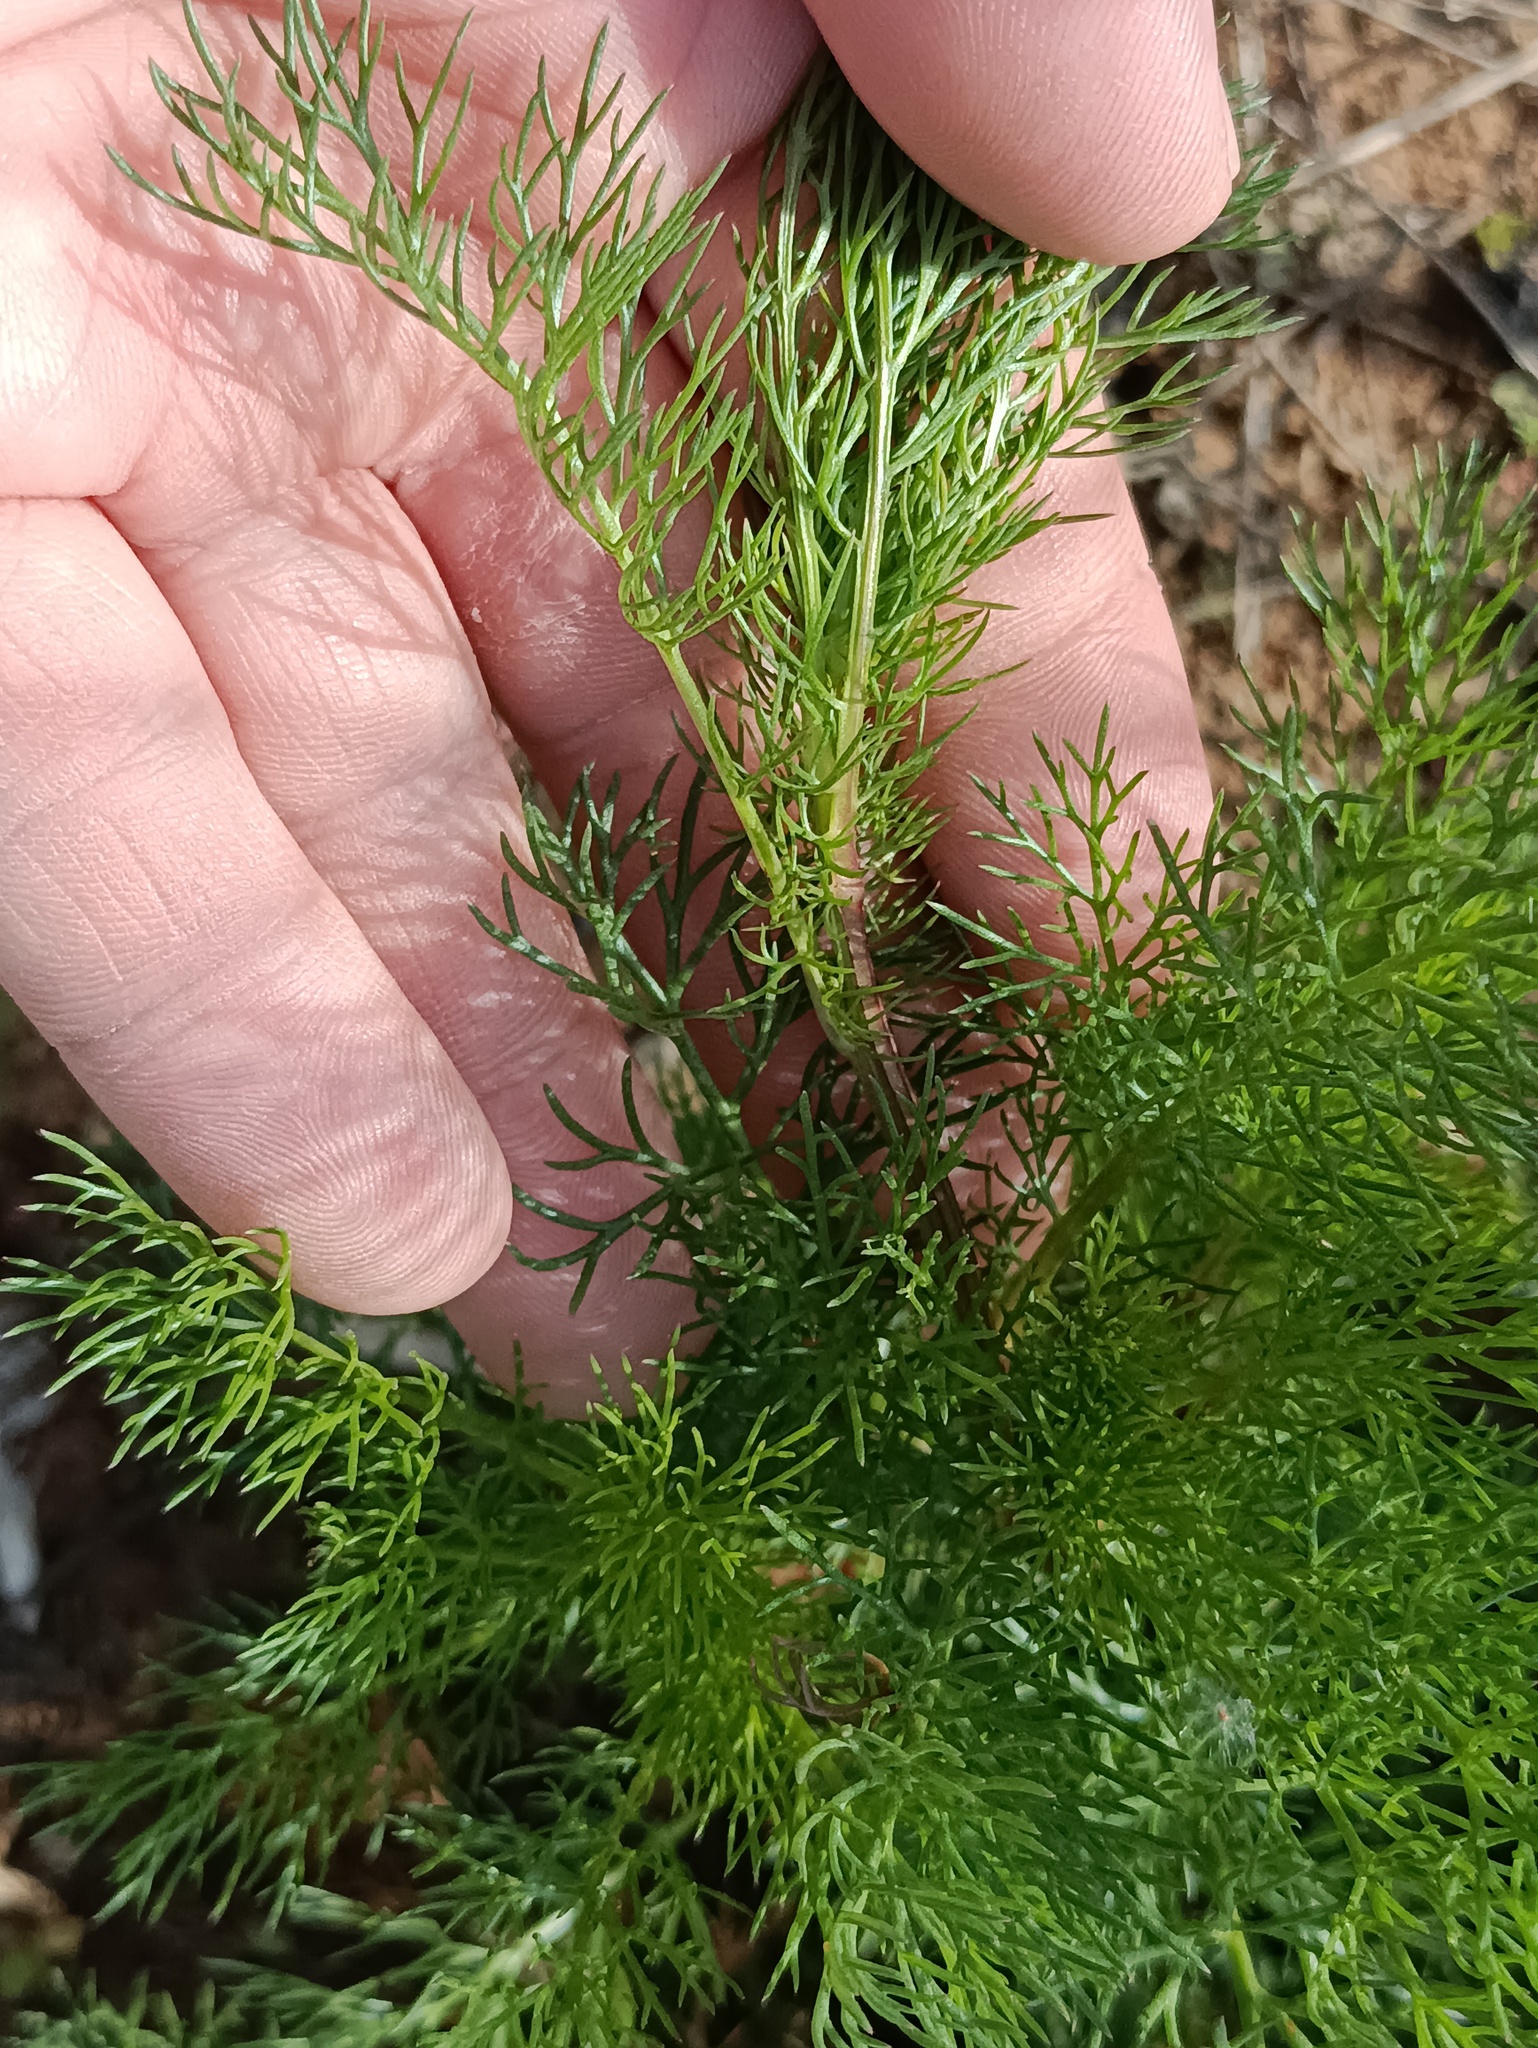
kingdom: Plantae
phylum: Tracheophyta
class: Magnoliopsida
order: Asterales
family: Asteraceae
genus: Tripleurospermum
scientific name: Tripleurospermum inodorum
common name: Scentless mayweed
